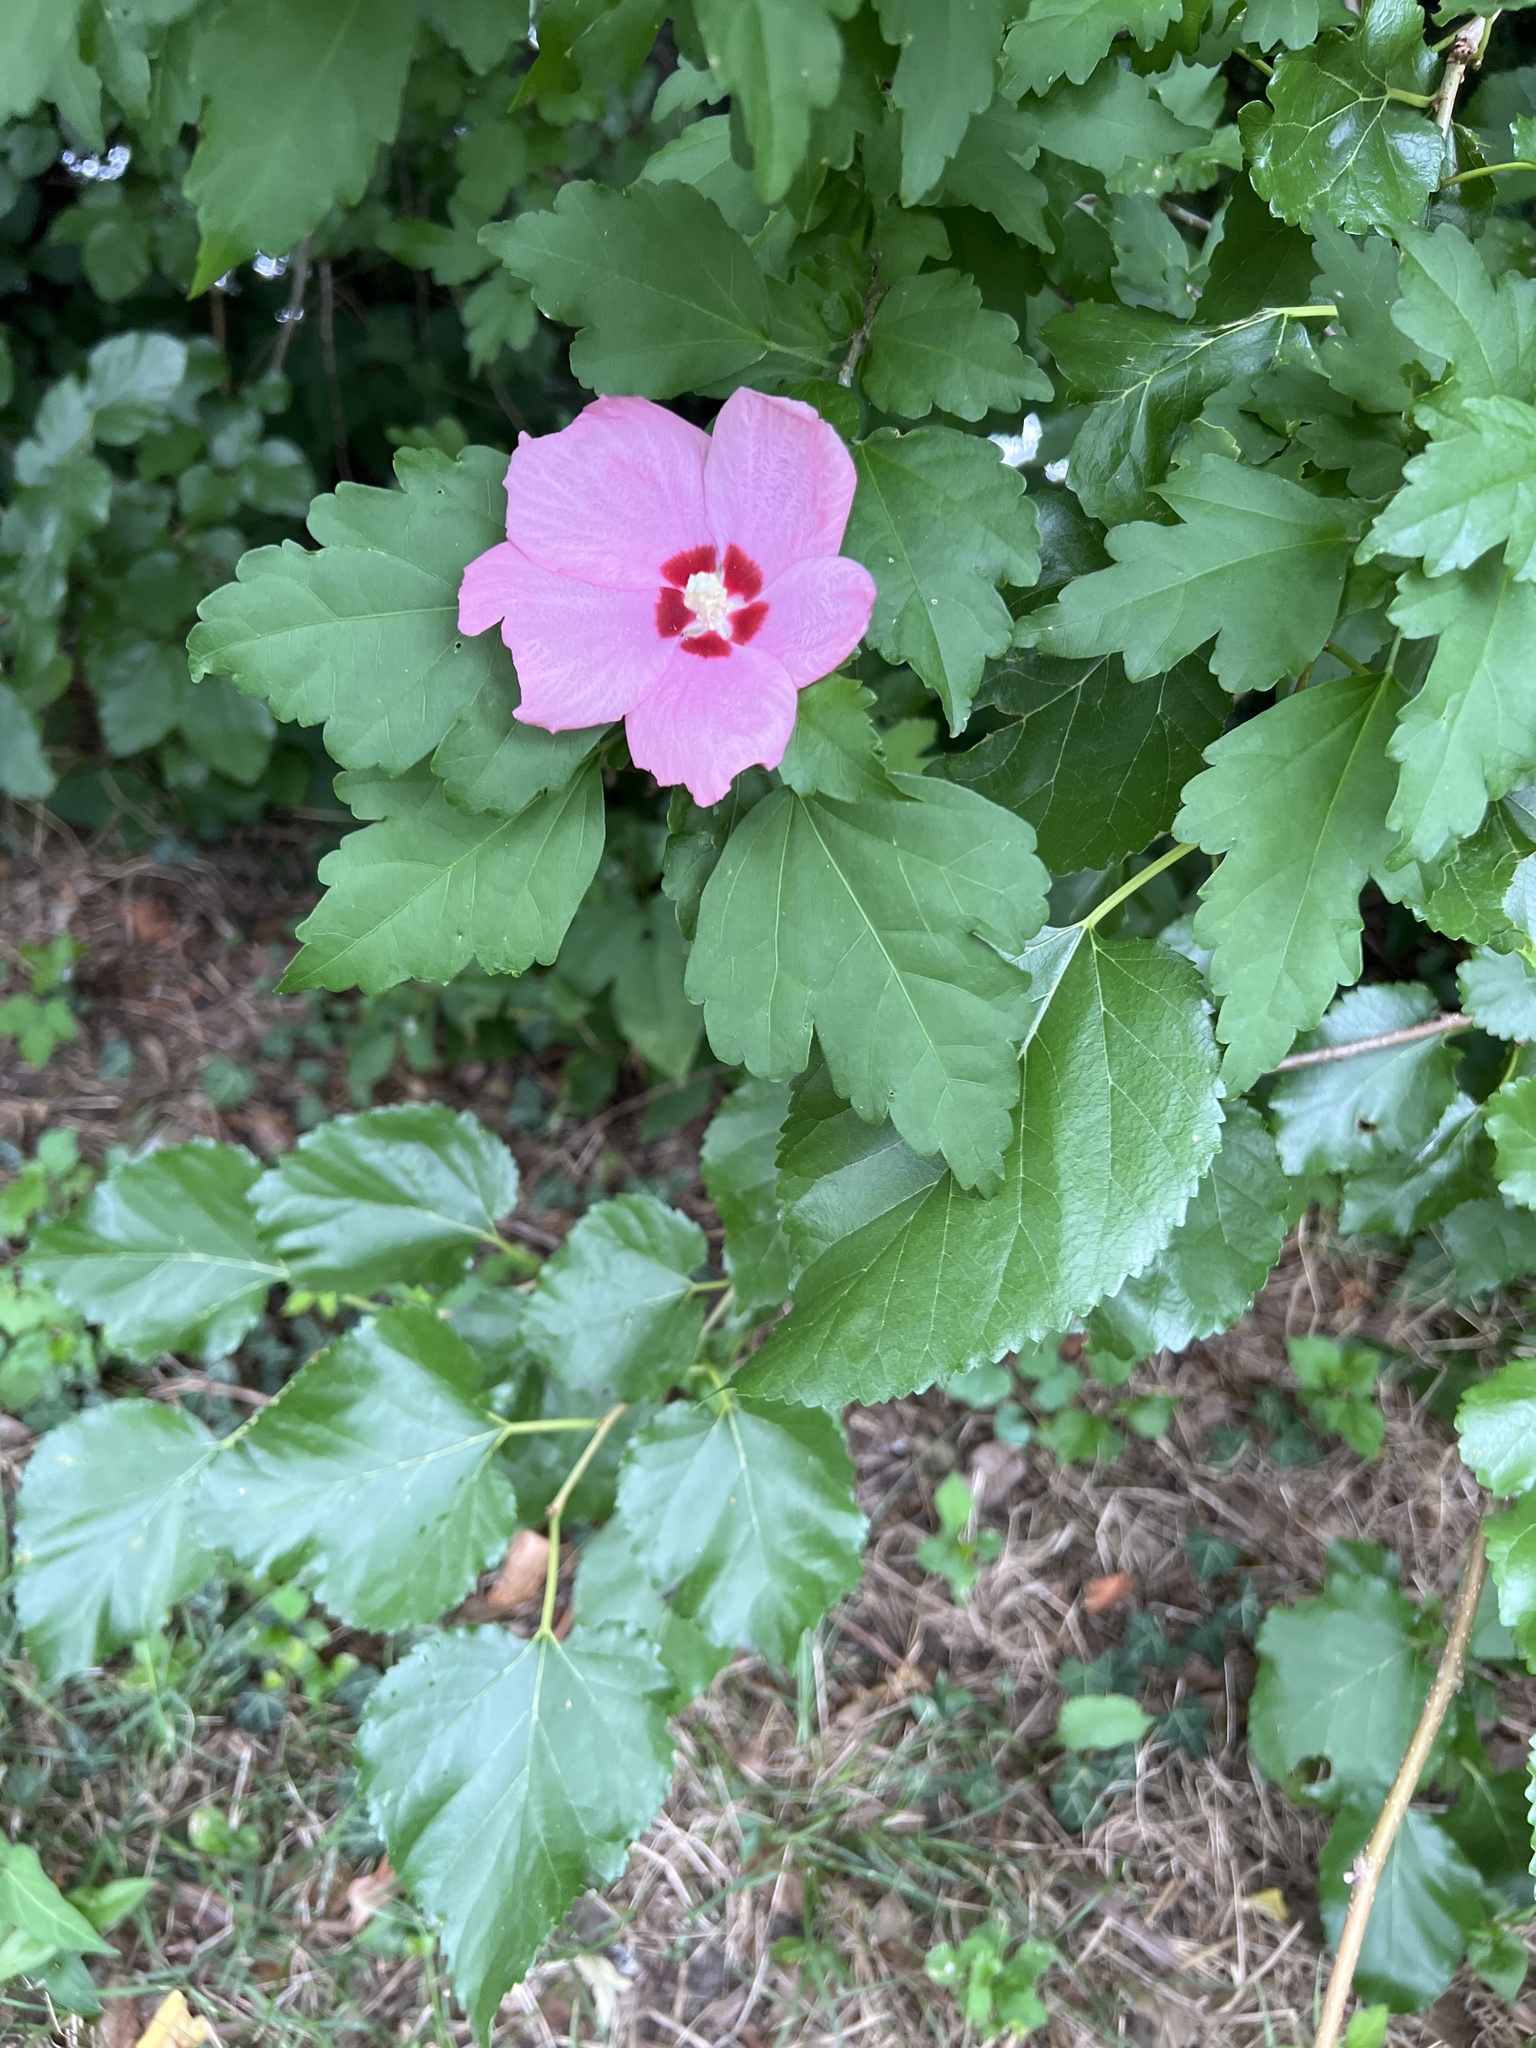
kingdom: Plantae
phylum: Tracheophyta
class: Magnoliopsida
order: Malvales
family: Malvaceae
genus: Hibiscus
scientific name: Hibiscus syriacus
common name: Syrian ketmia
